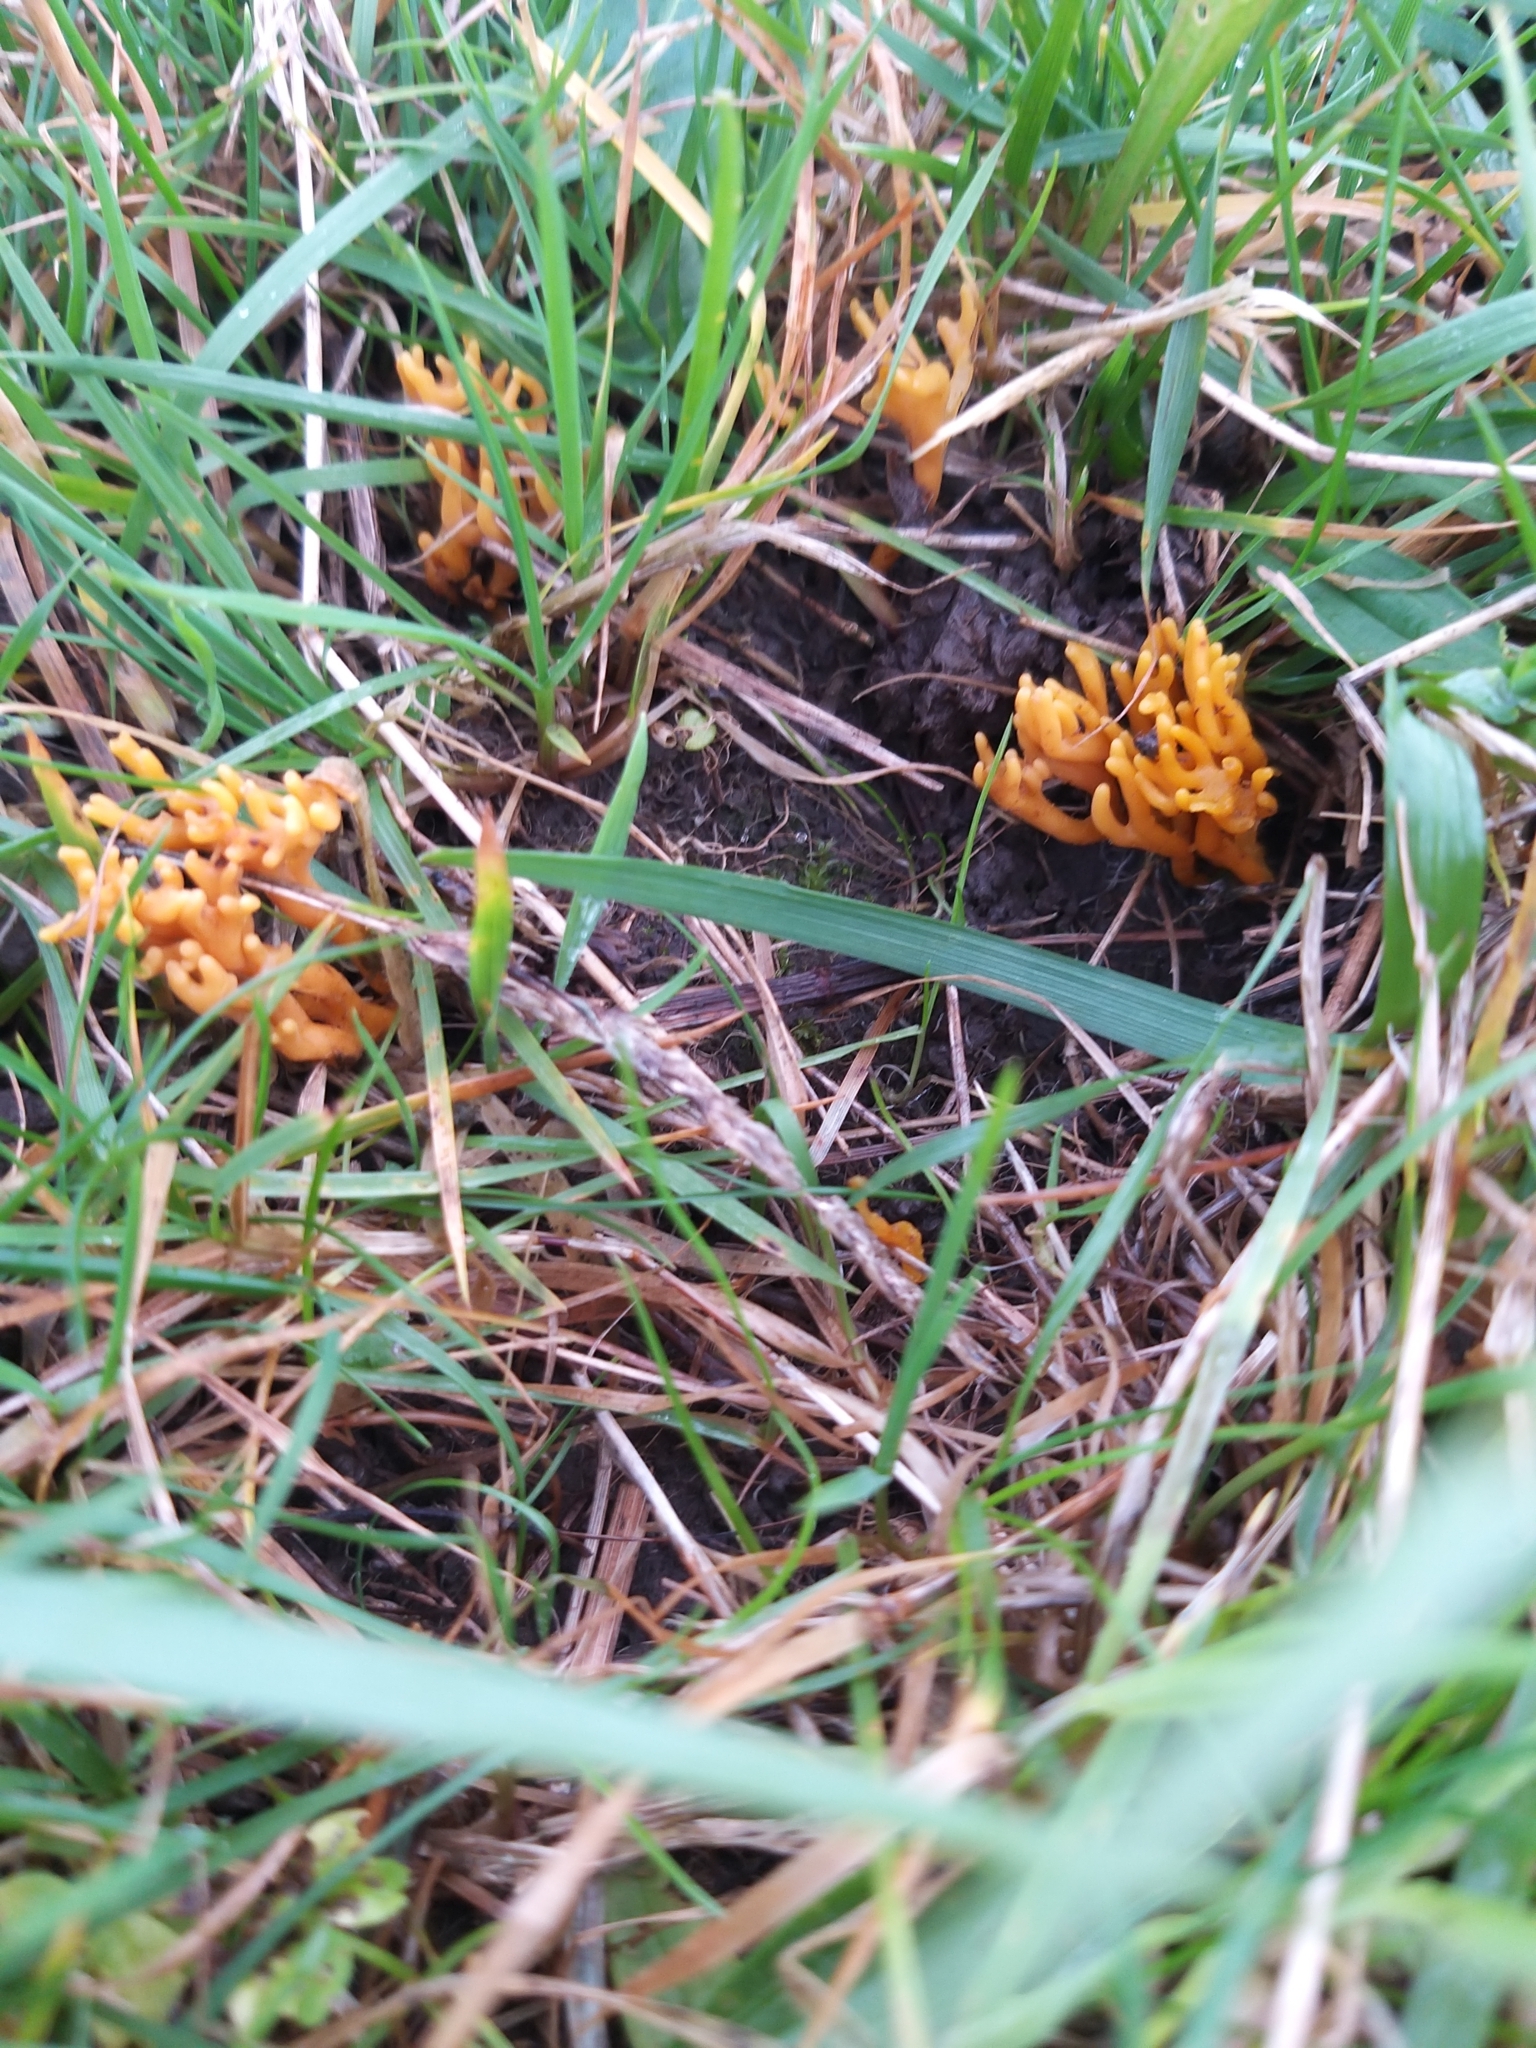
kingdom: Fungi
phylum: Basidiomycota
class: Agaricomycetes
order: Agaricales
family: Clavariaceae
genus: Clavulinopsis
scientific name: Clavulinopsis corniculata
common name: Meadow coral
